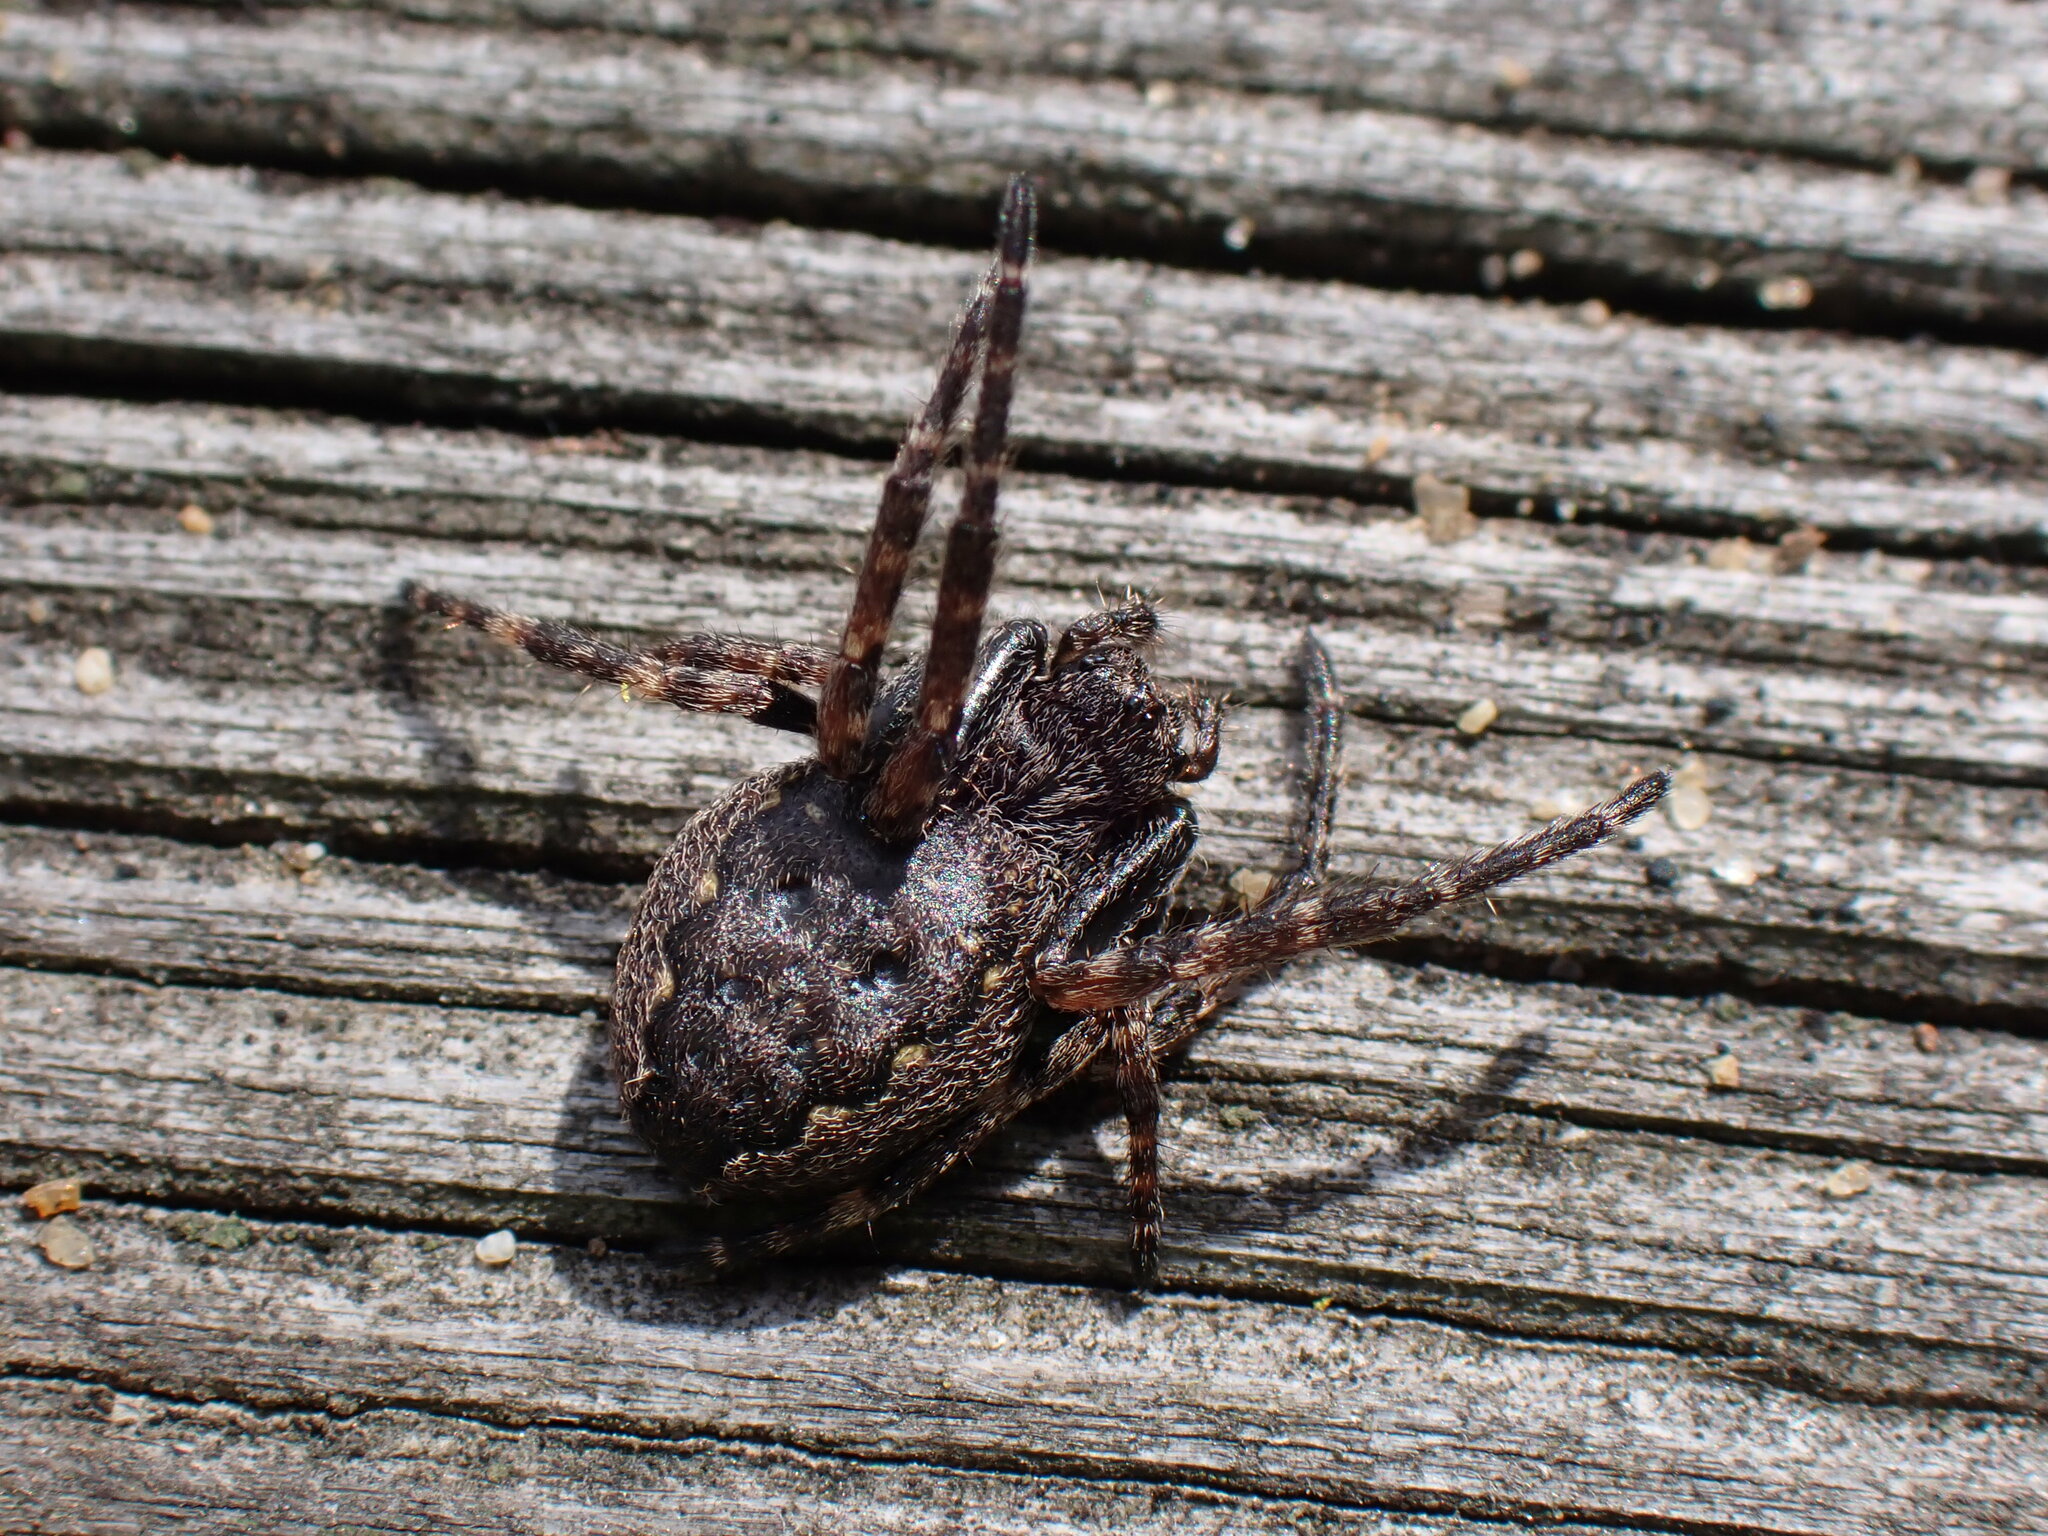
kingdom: Animalia
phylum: Arthropoda
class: Arachnida
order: Araneae
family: Araneidae
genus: Nuctenea
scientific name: Nuctenea umbratica
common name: Toad spider
